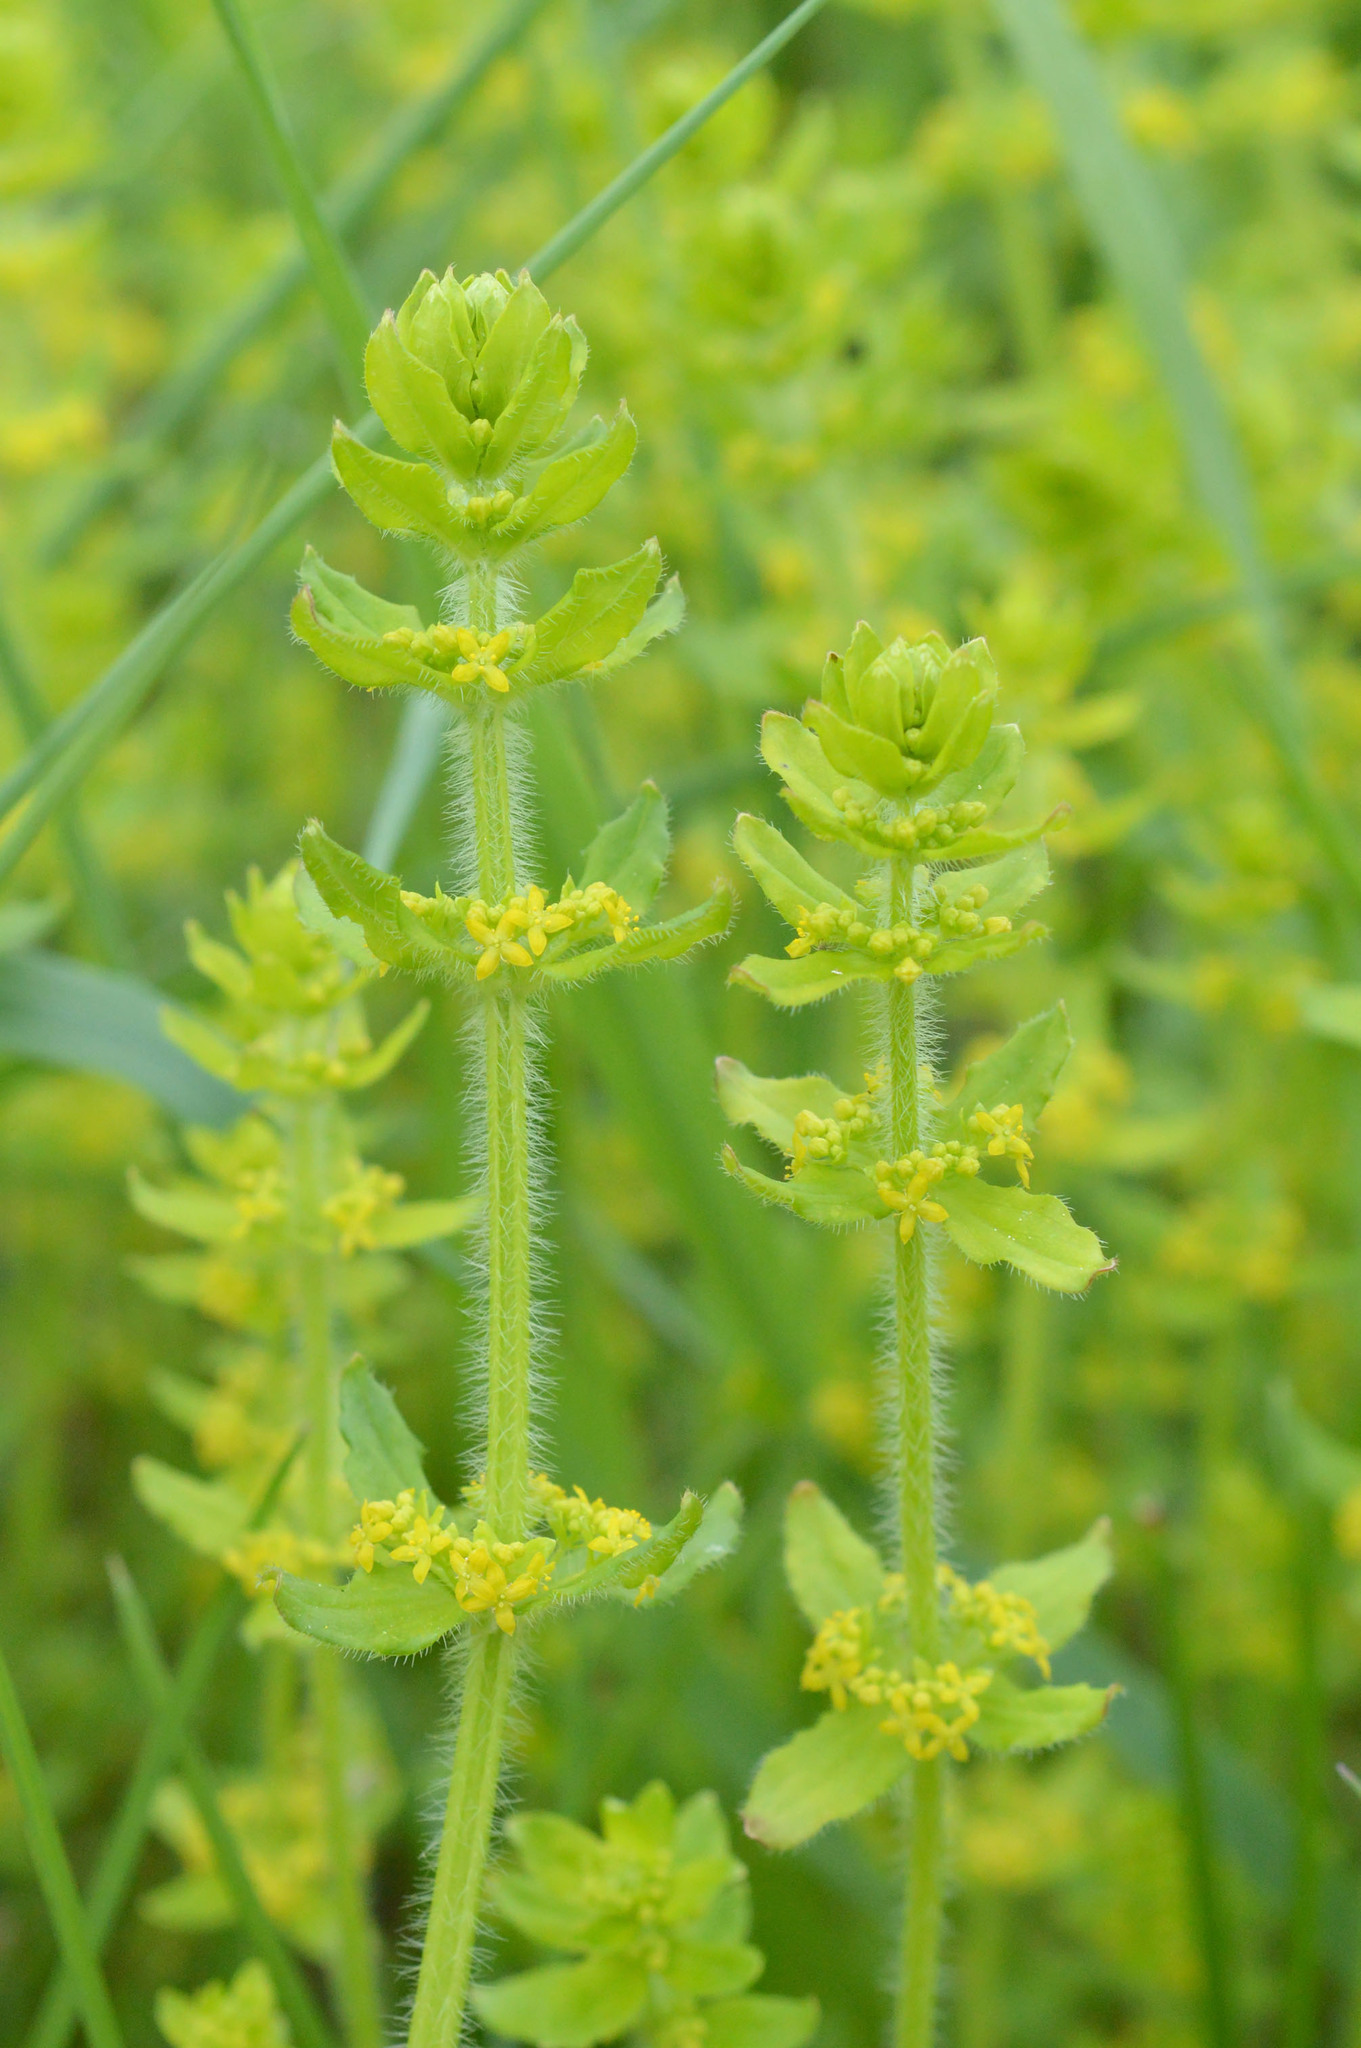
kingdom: Plantae
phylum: Tracheophyta
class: Magnoliopsida
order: Gentianales
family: Rubiaceae
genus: Cruciata
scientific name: Cruciata laevipes
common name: Crosswort
